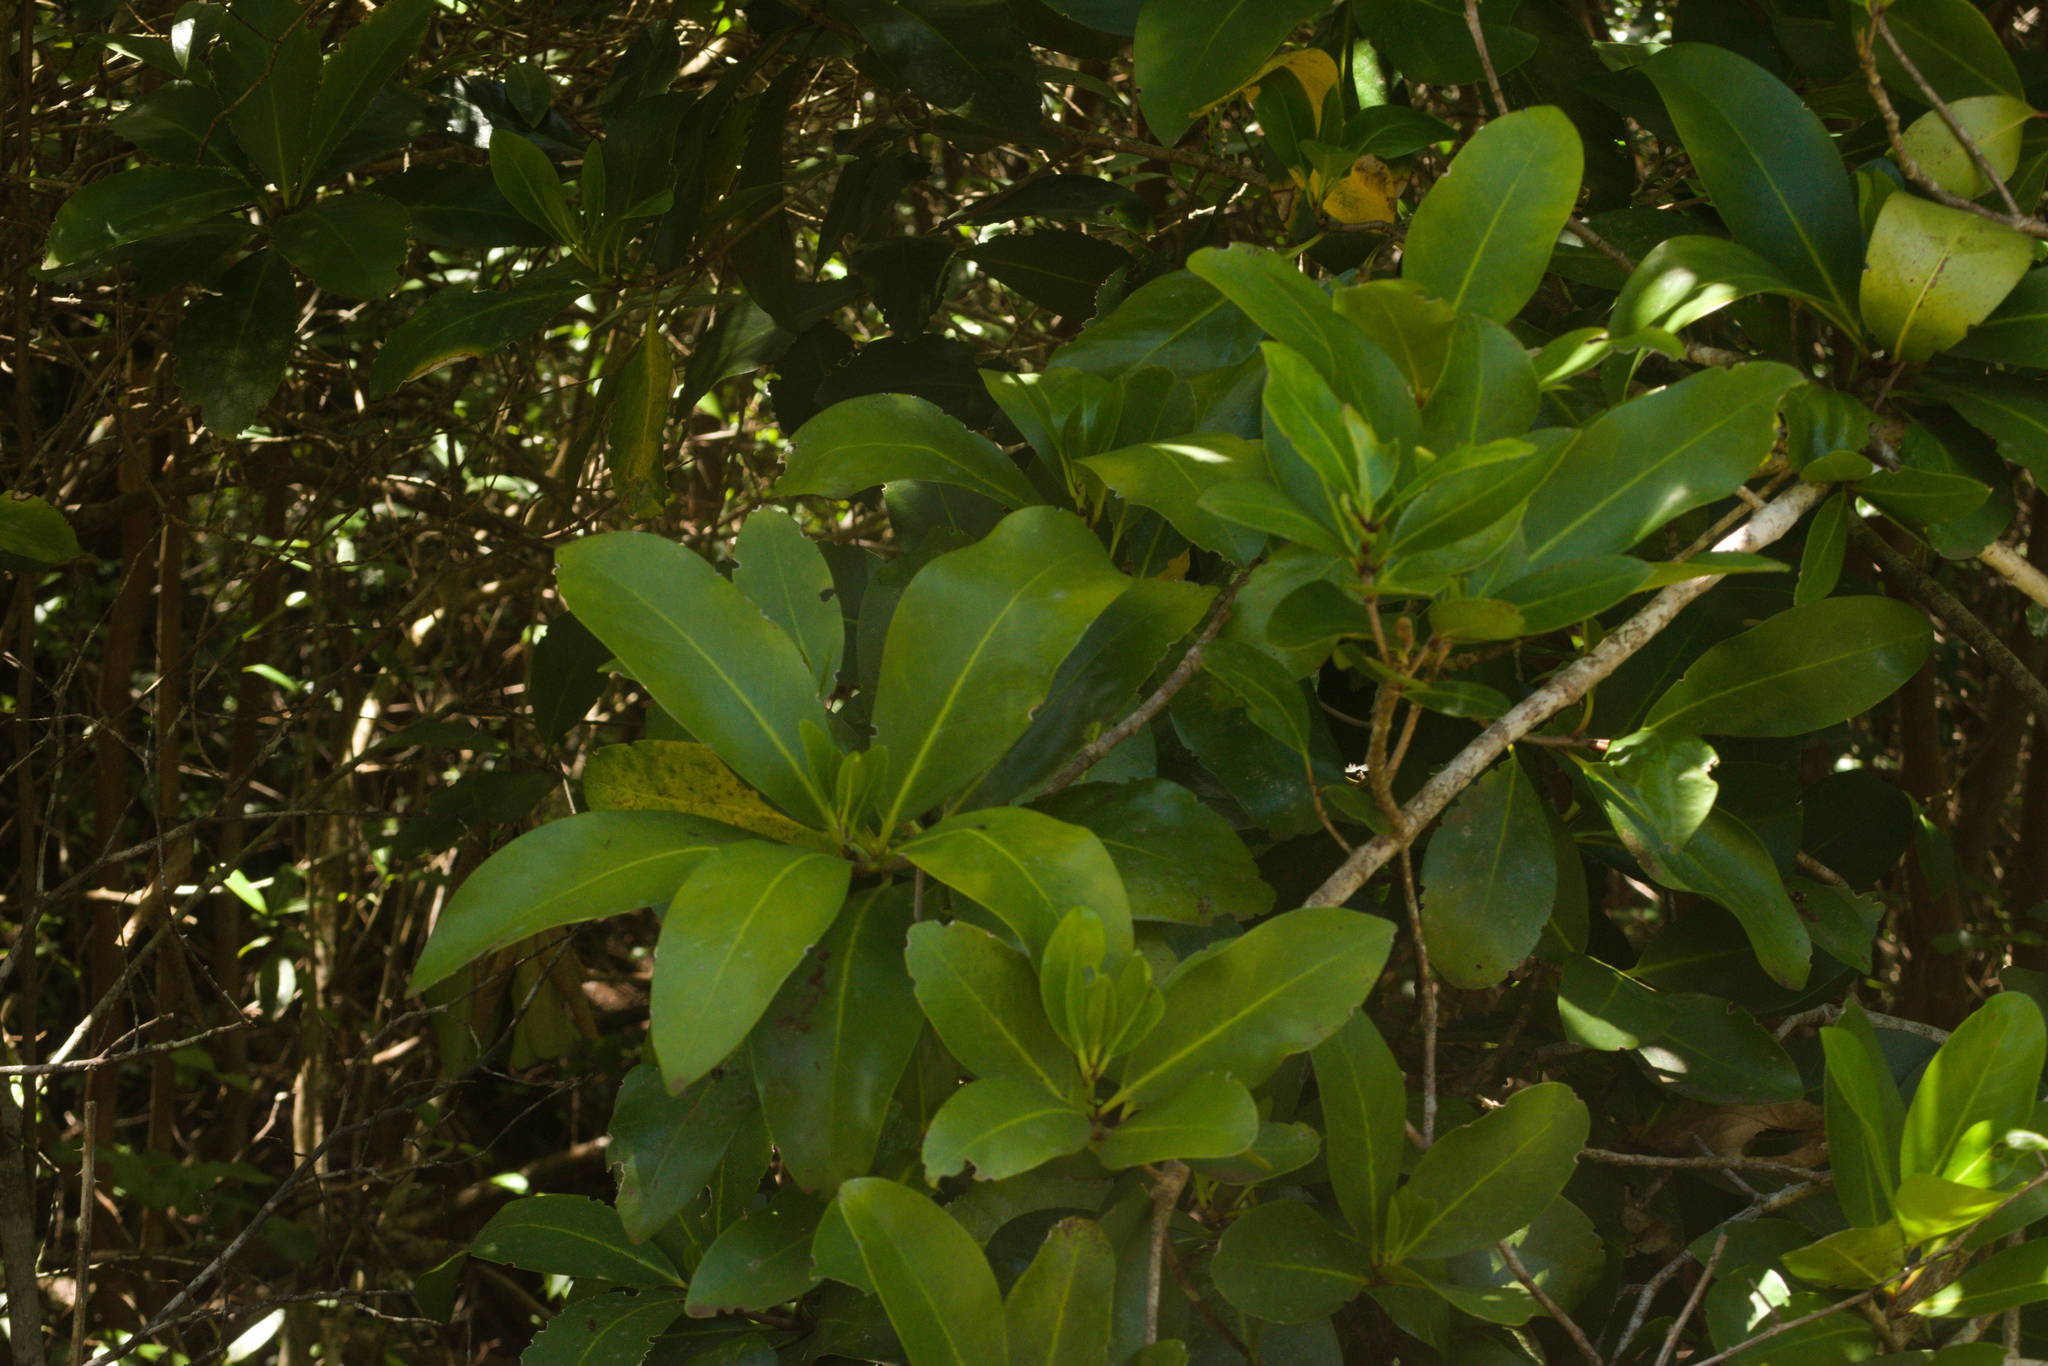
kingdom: Plantae
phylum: Tracheophyta
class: Magnoliopsida
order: Cucurbitales
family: Corynocarpaceae
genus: Corynocarpus
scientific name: Corynocarpus laevigatus
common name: New zealand laurel
